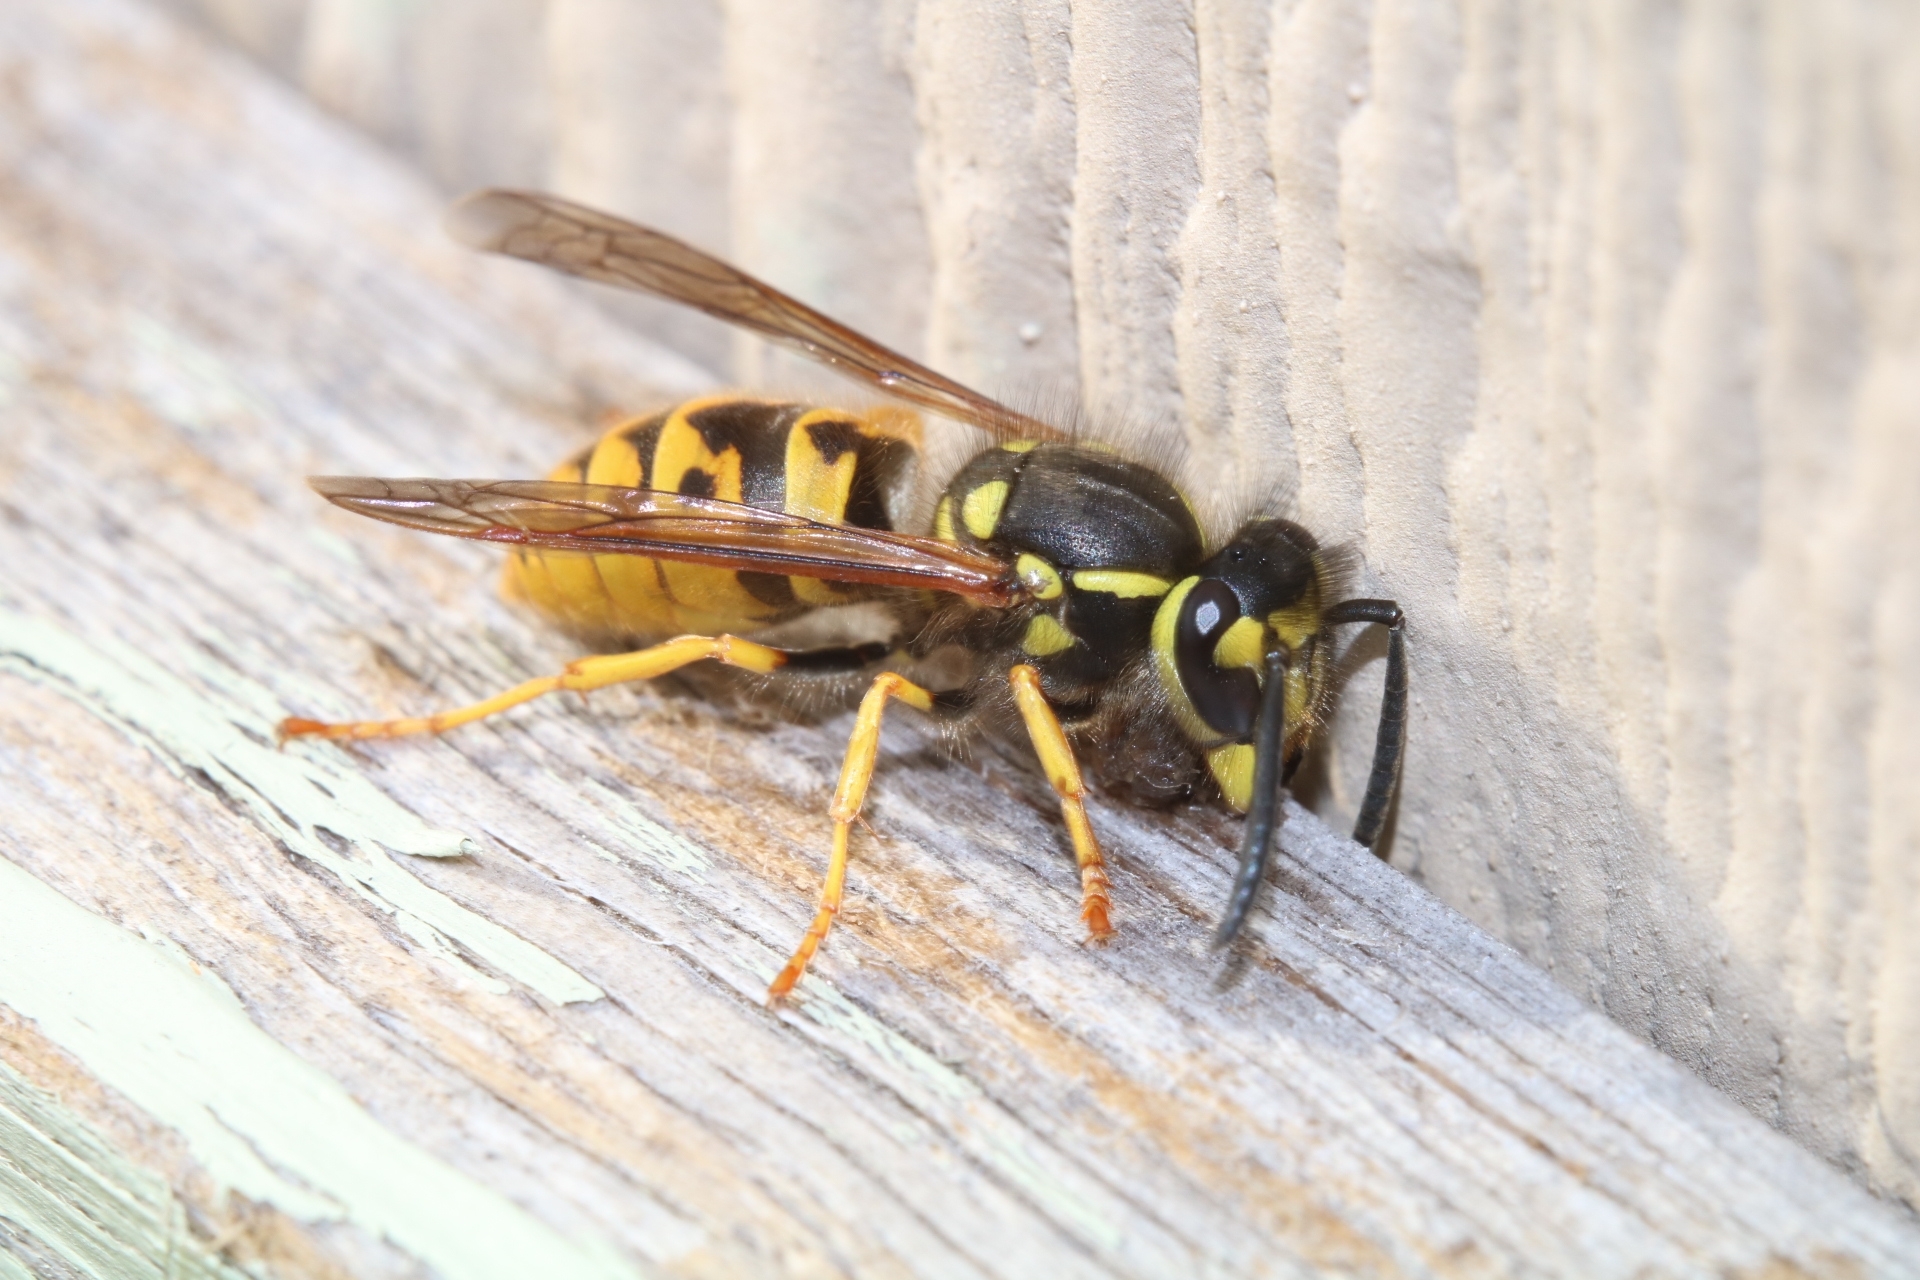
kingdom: Animalia
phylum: Arthropoda
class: Insecta
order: Hymenoptera
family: Vespidae
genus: Vespula
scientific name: Vespula germanica
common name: German wasp
